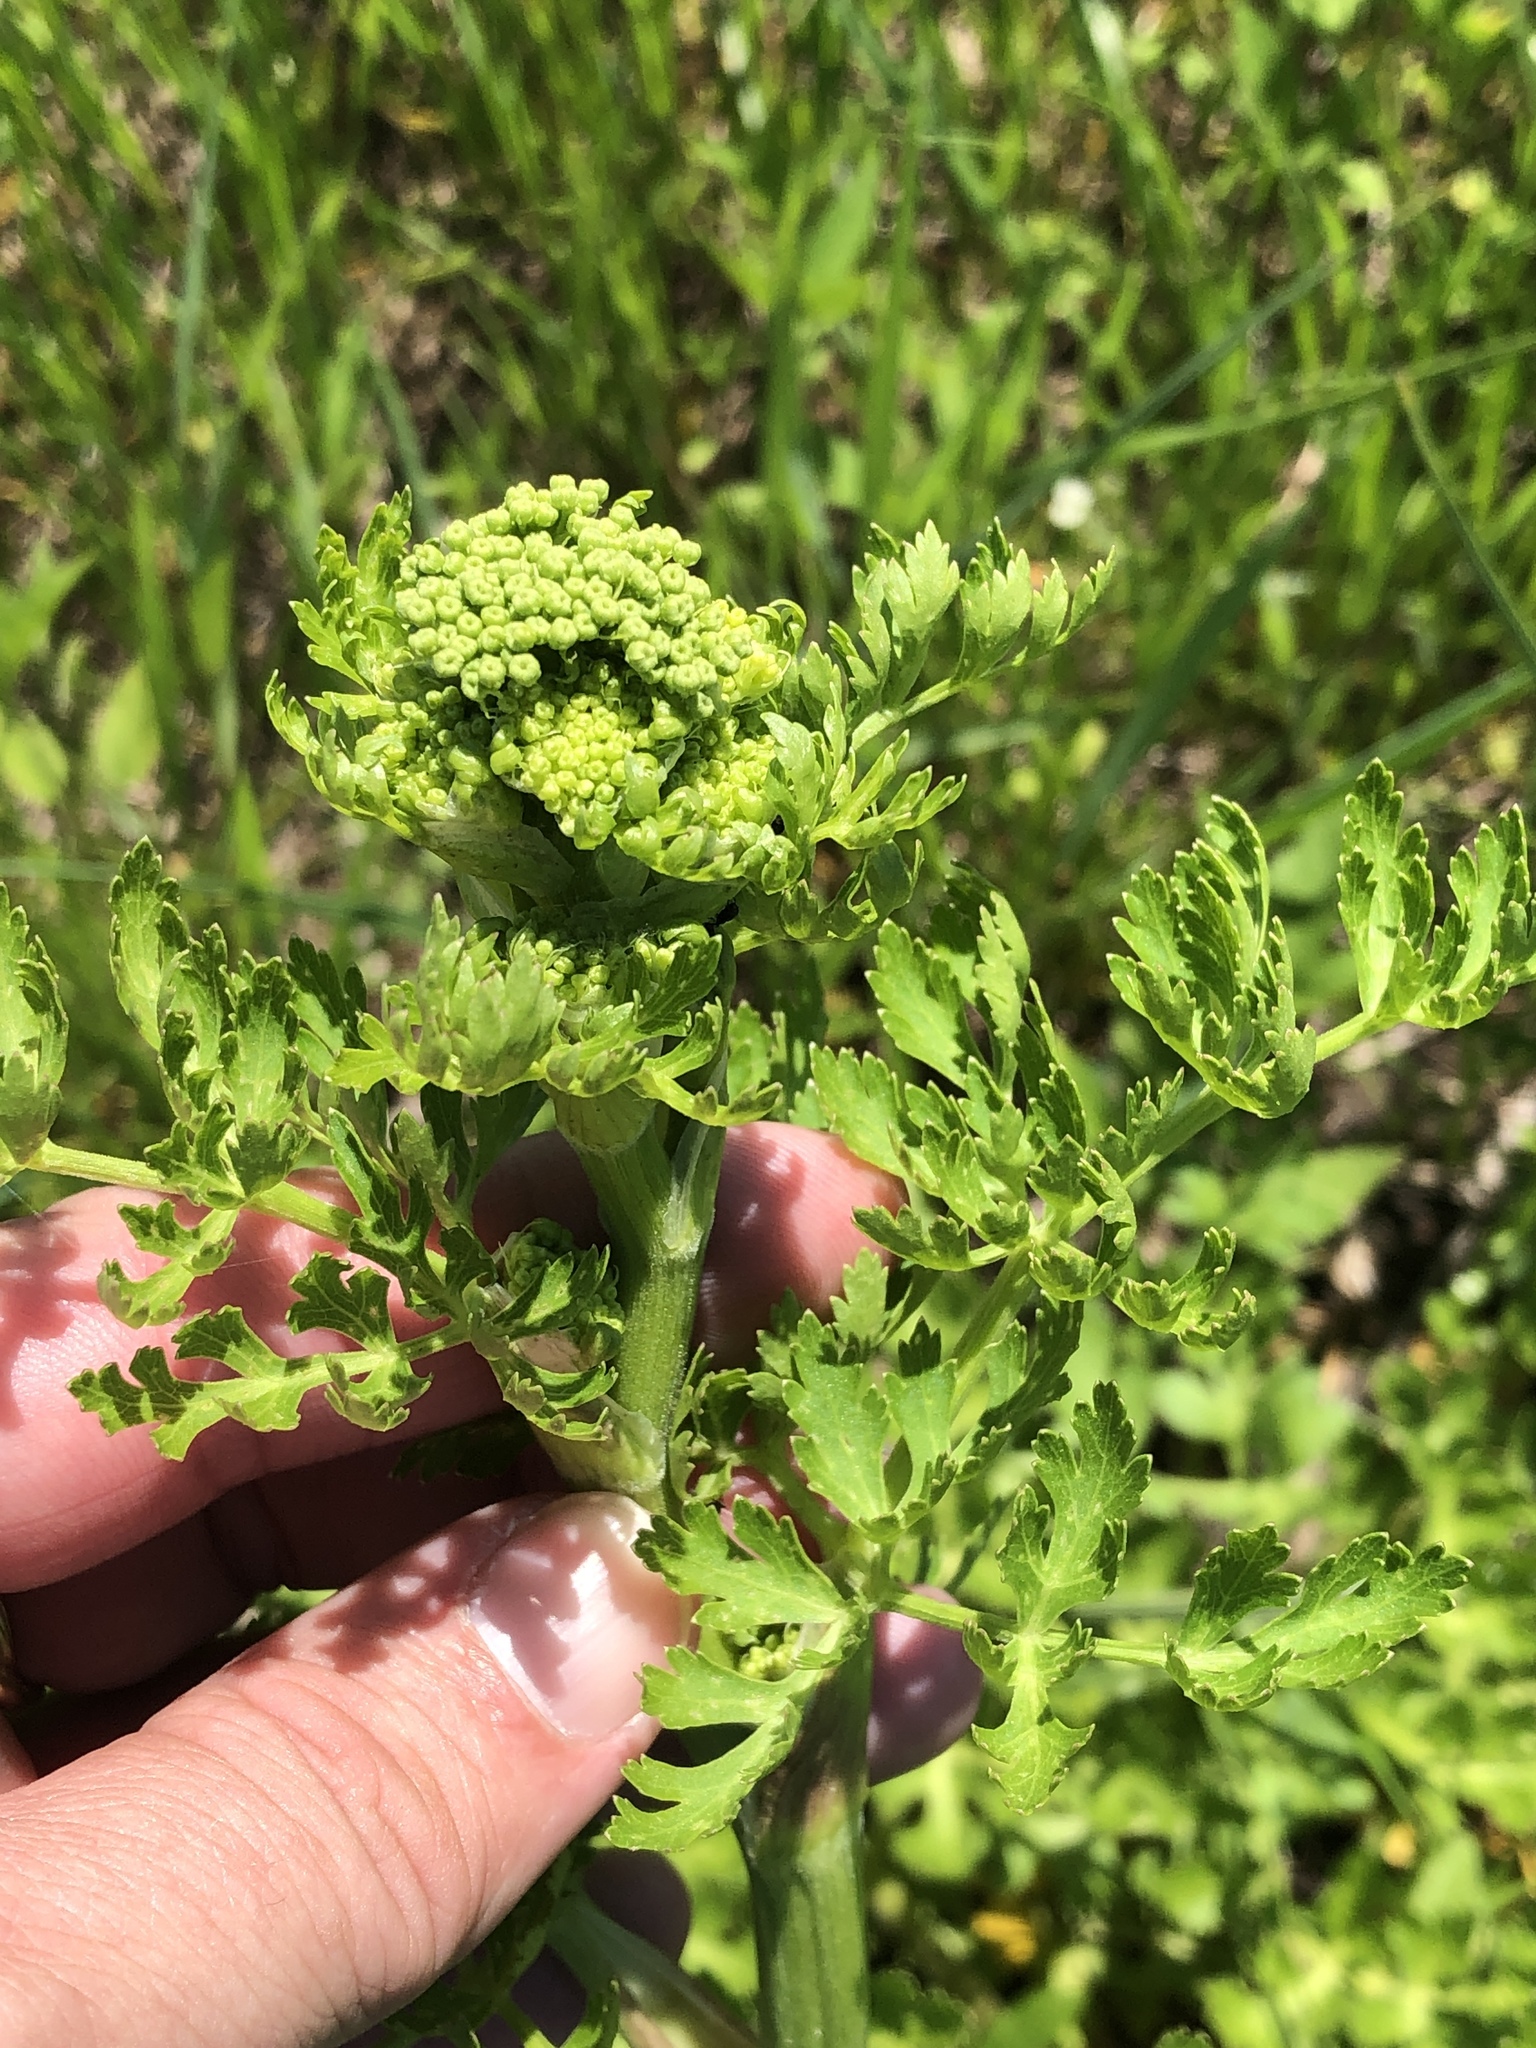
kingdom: Plantae
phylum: Tracheophyta
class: Magnoliopsida
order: Apiales
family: Apiaceae
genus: Polytaenia
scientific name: Polytaenia texana
